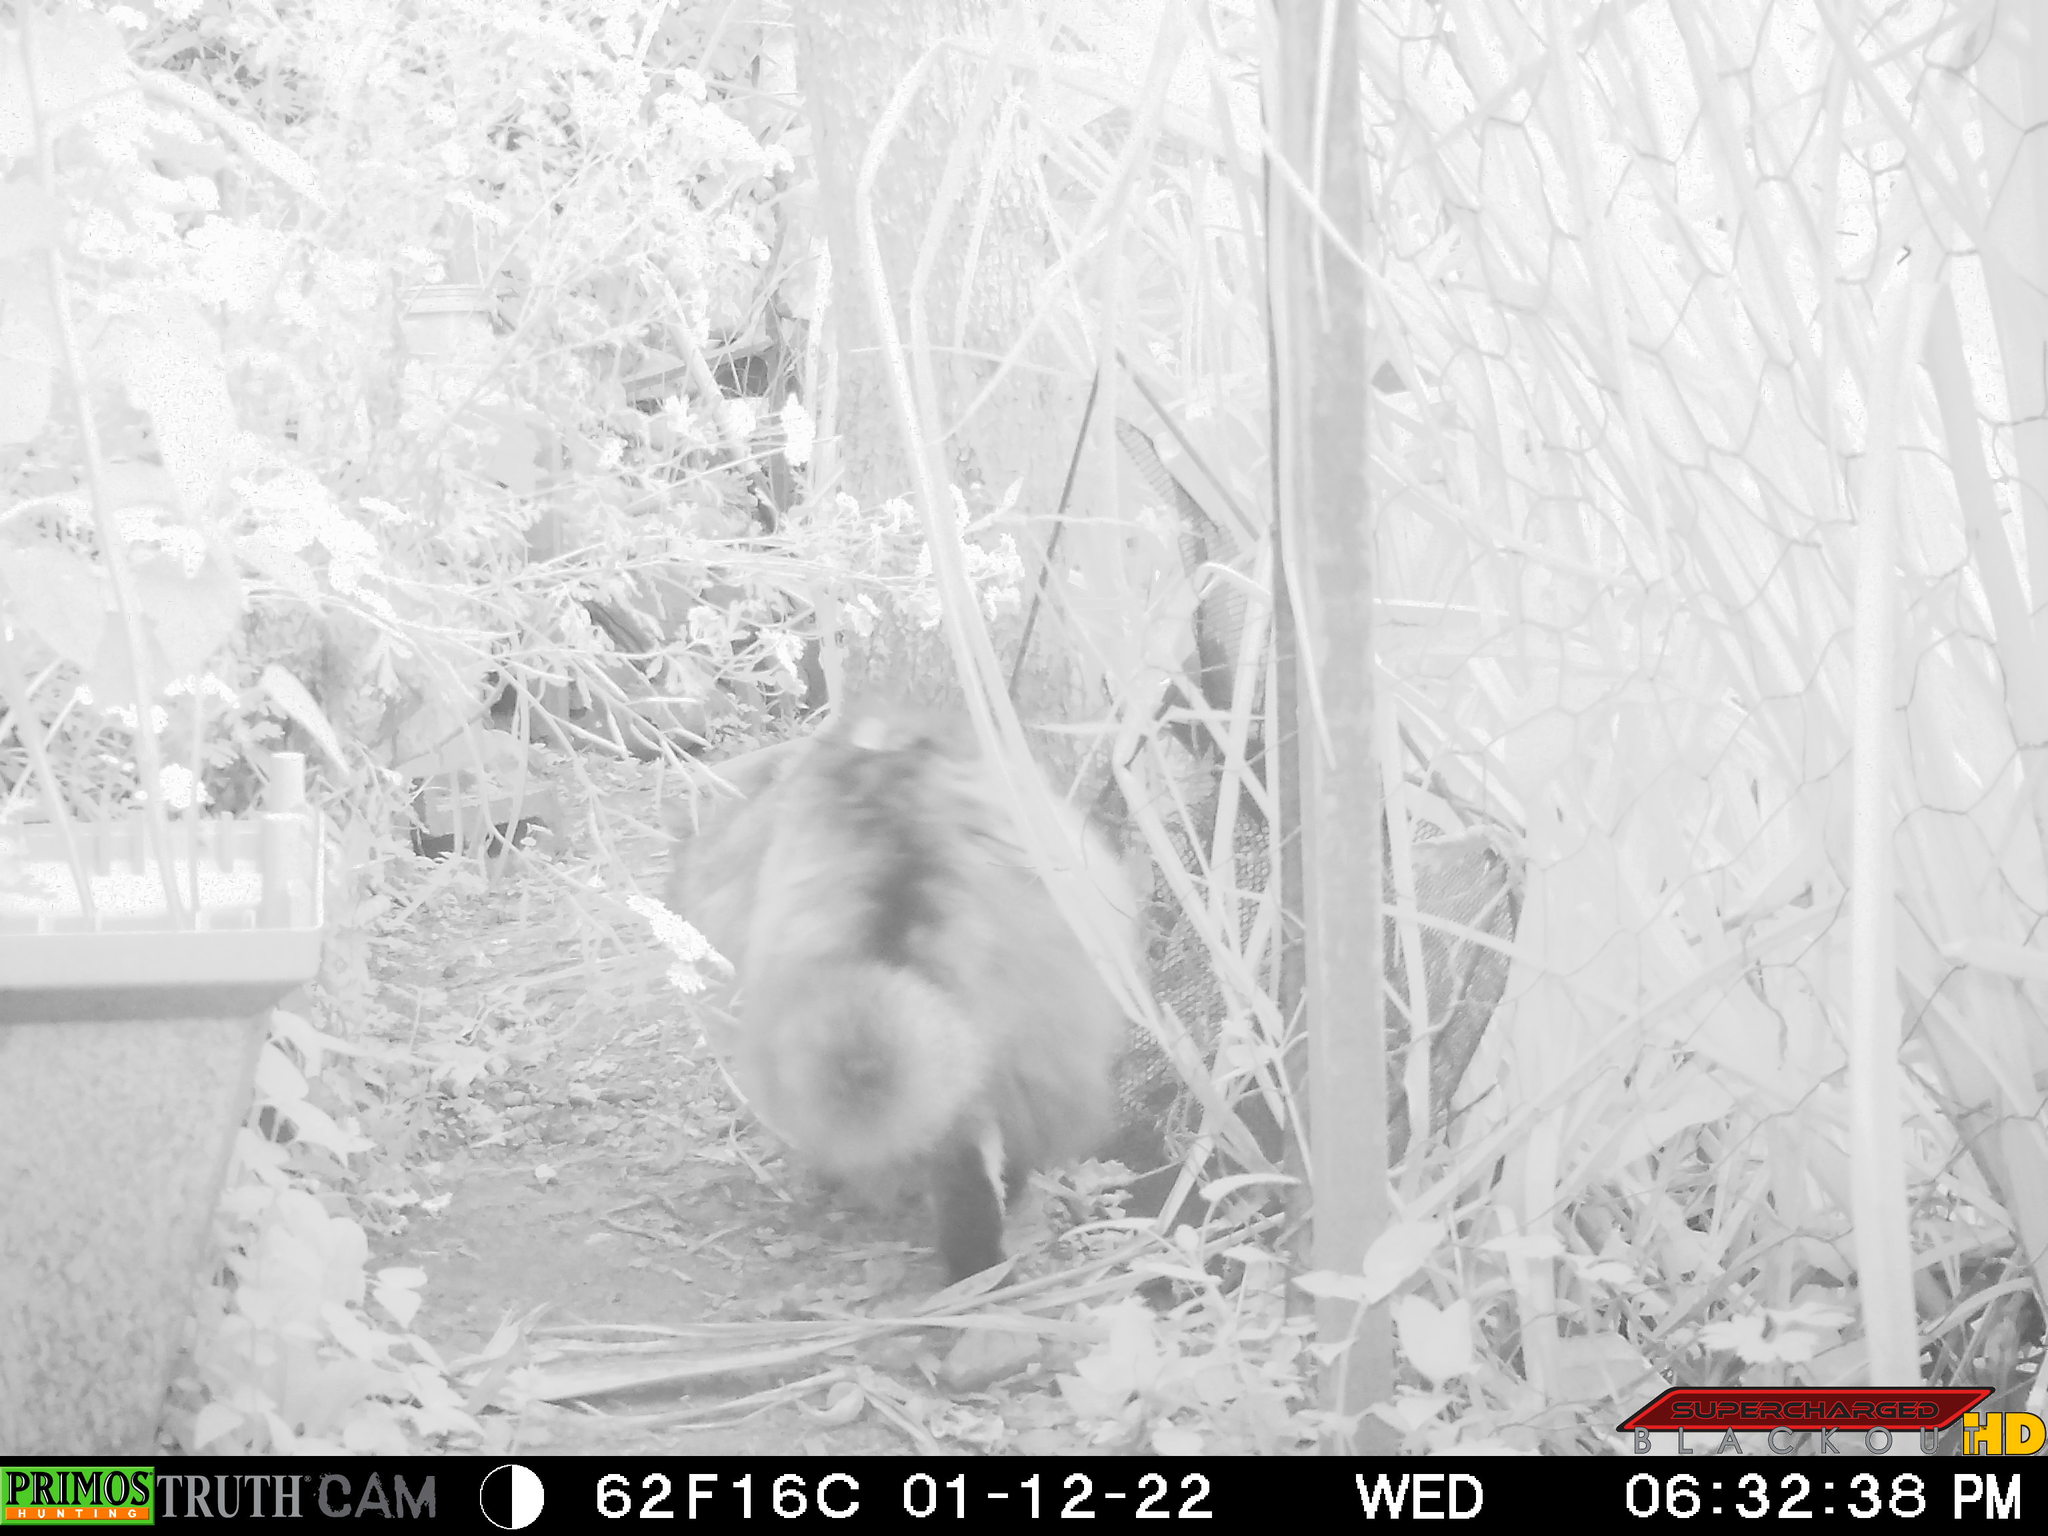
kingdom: Animalia
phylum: Chordata
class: Mammalia
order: Carnivora
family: Felidae
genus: Felis
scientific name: Felis catus
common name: Domestic cat
